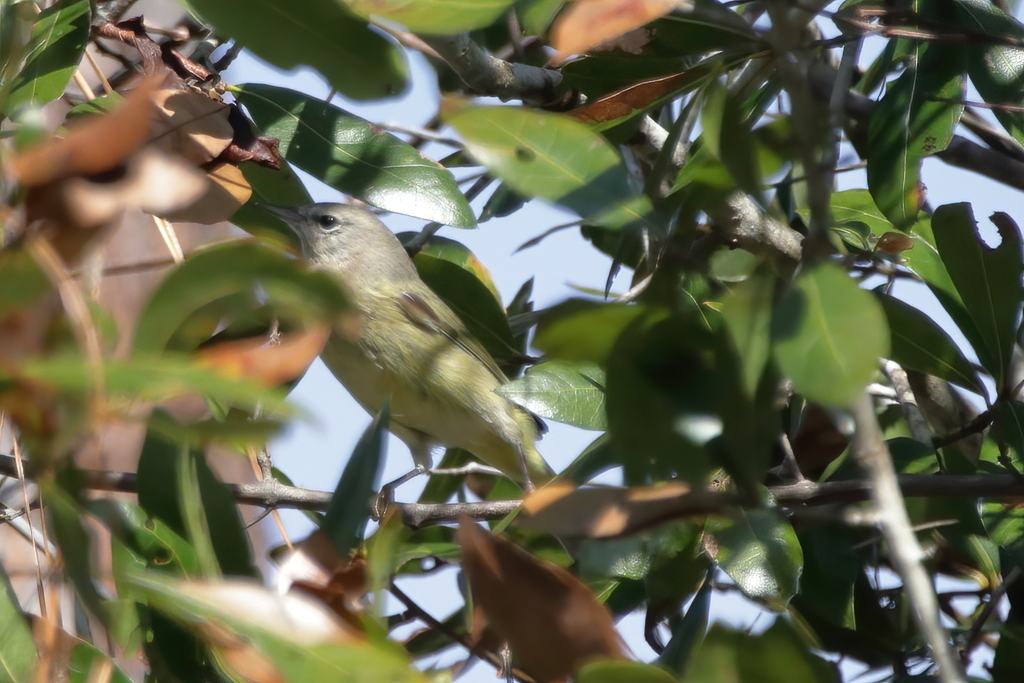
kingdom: Animalia
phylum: Chordata
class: Aves
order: Passeriformes
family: Parulidae
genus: Leiothlypis
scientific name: Leiothlypis celata
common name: Orange-crowned warbler
